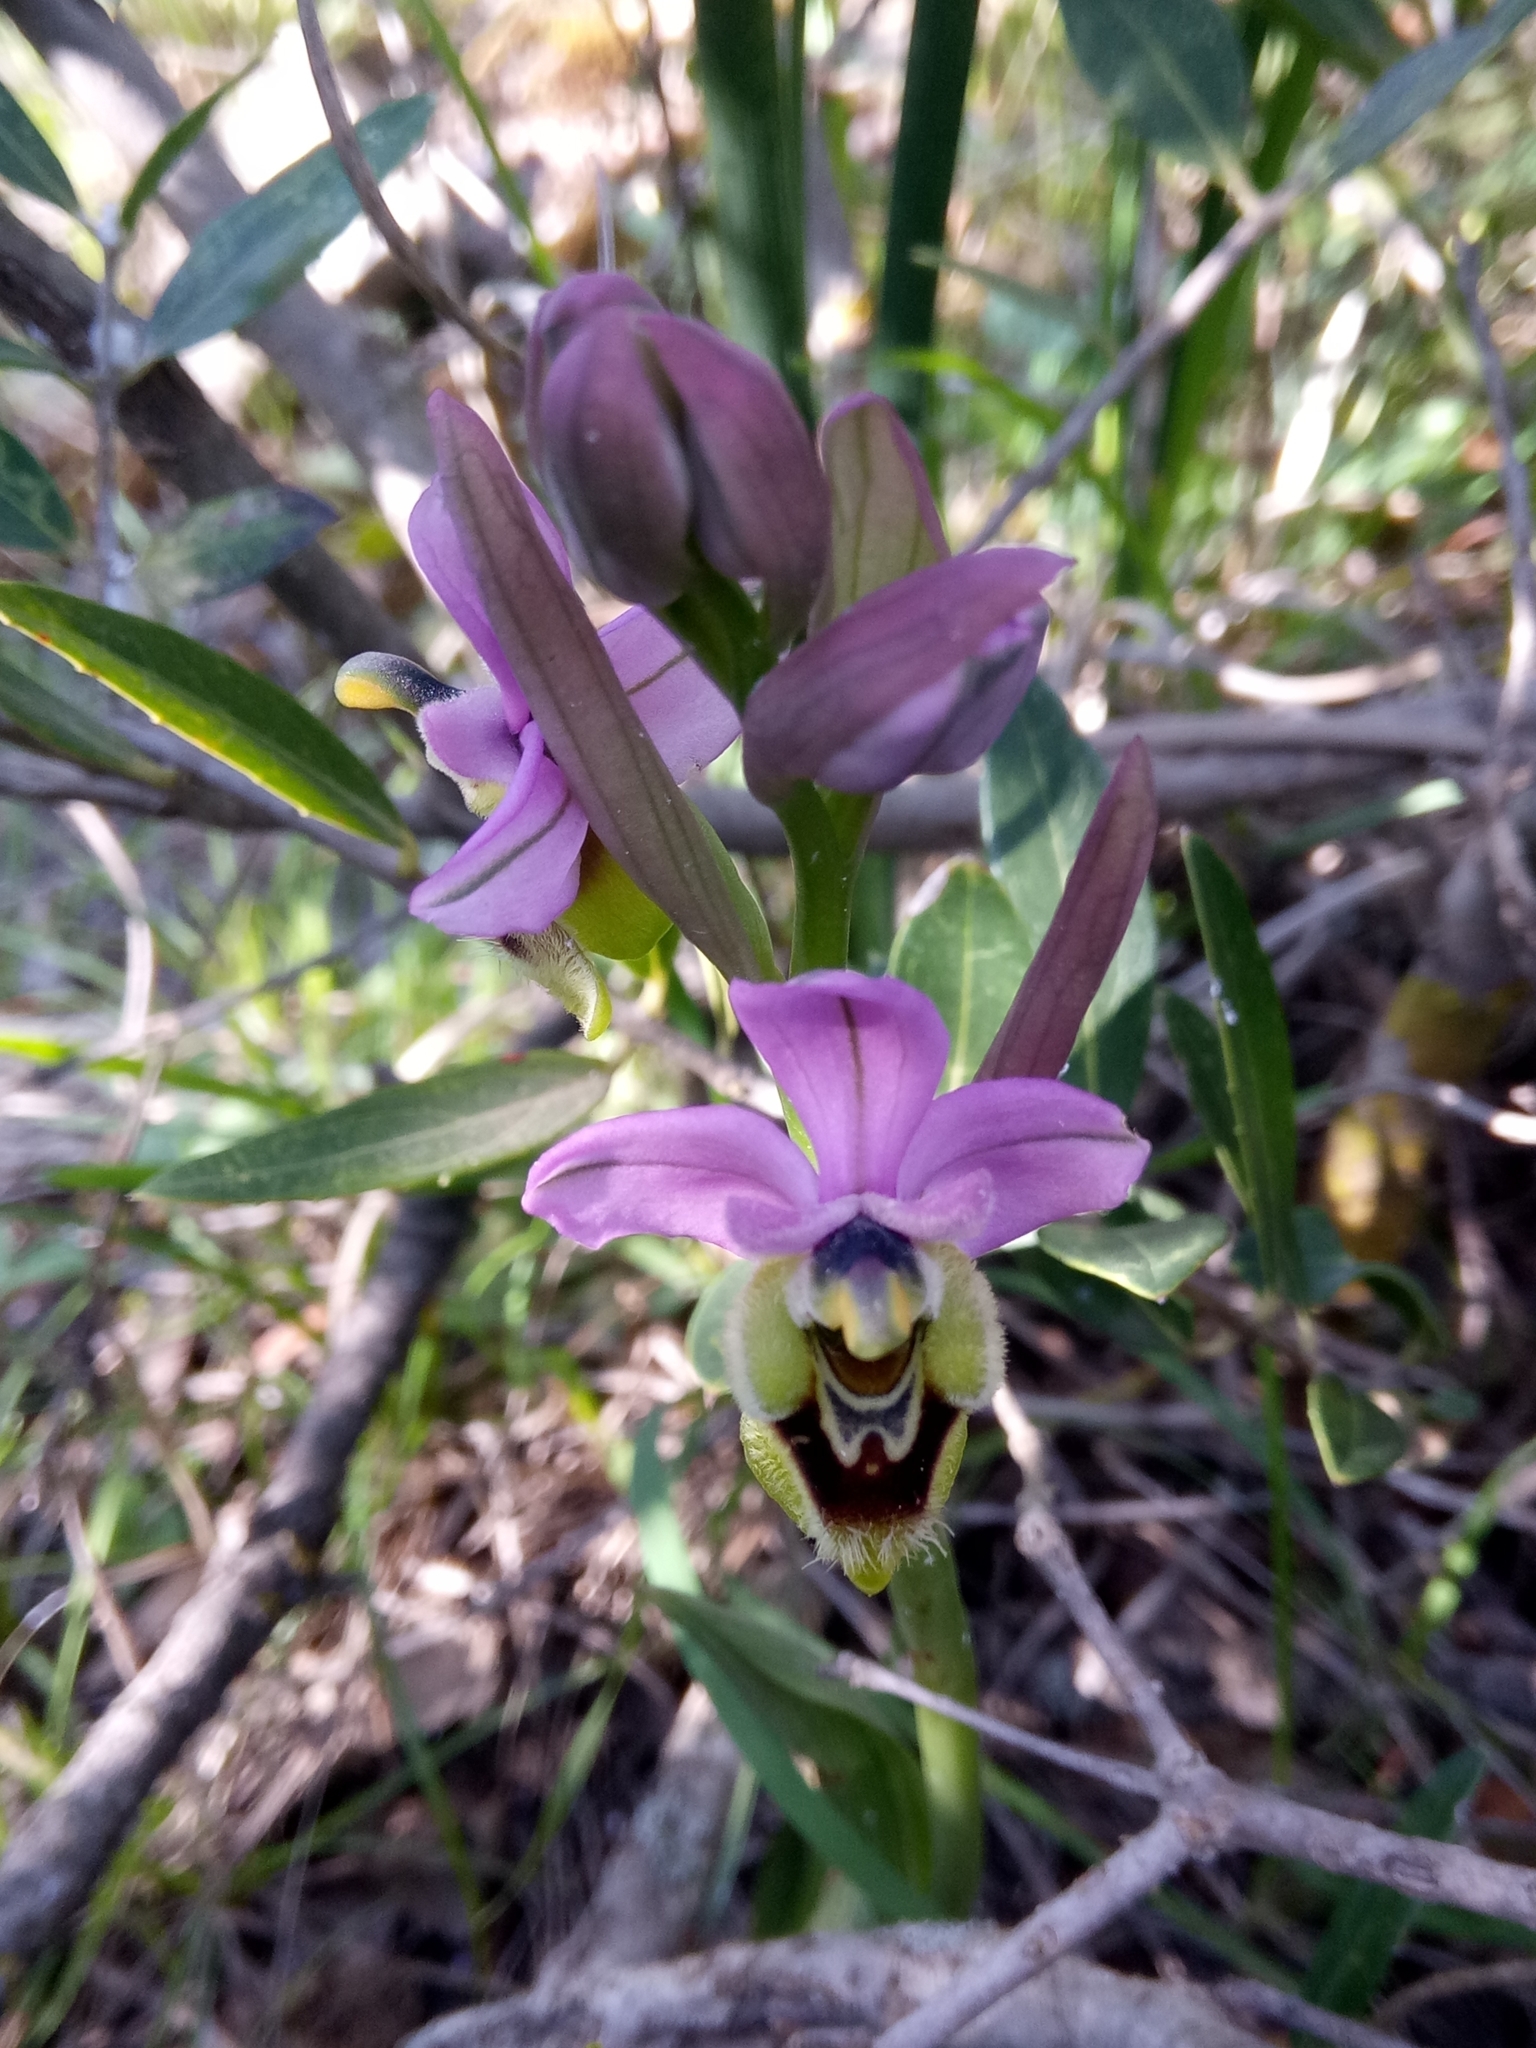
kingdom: Plantae
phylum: Tracheophyta
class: Liliopsida
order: Asparagales
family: Orchidaceae
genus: Ophrys
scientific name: Ophrys tenthredinifera
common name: Sawfly orchid
